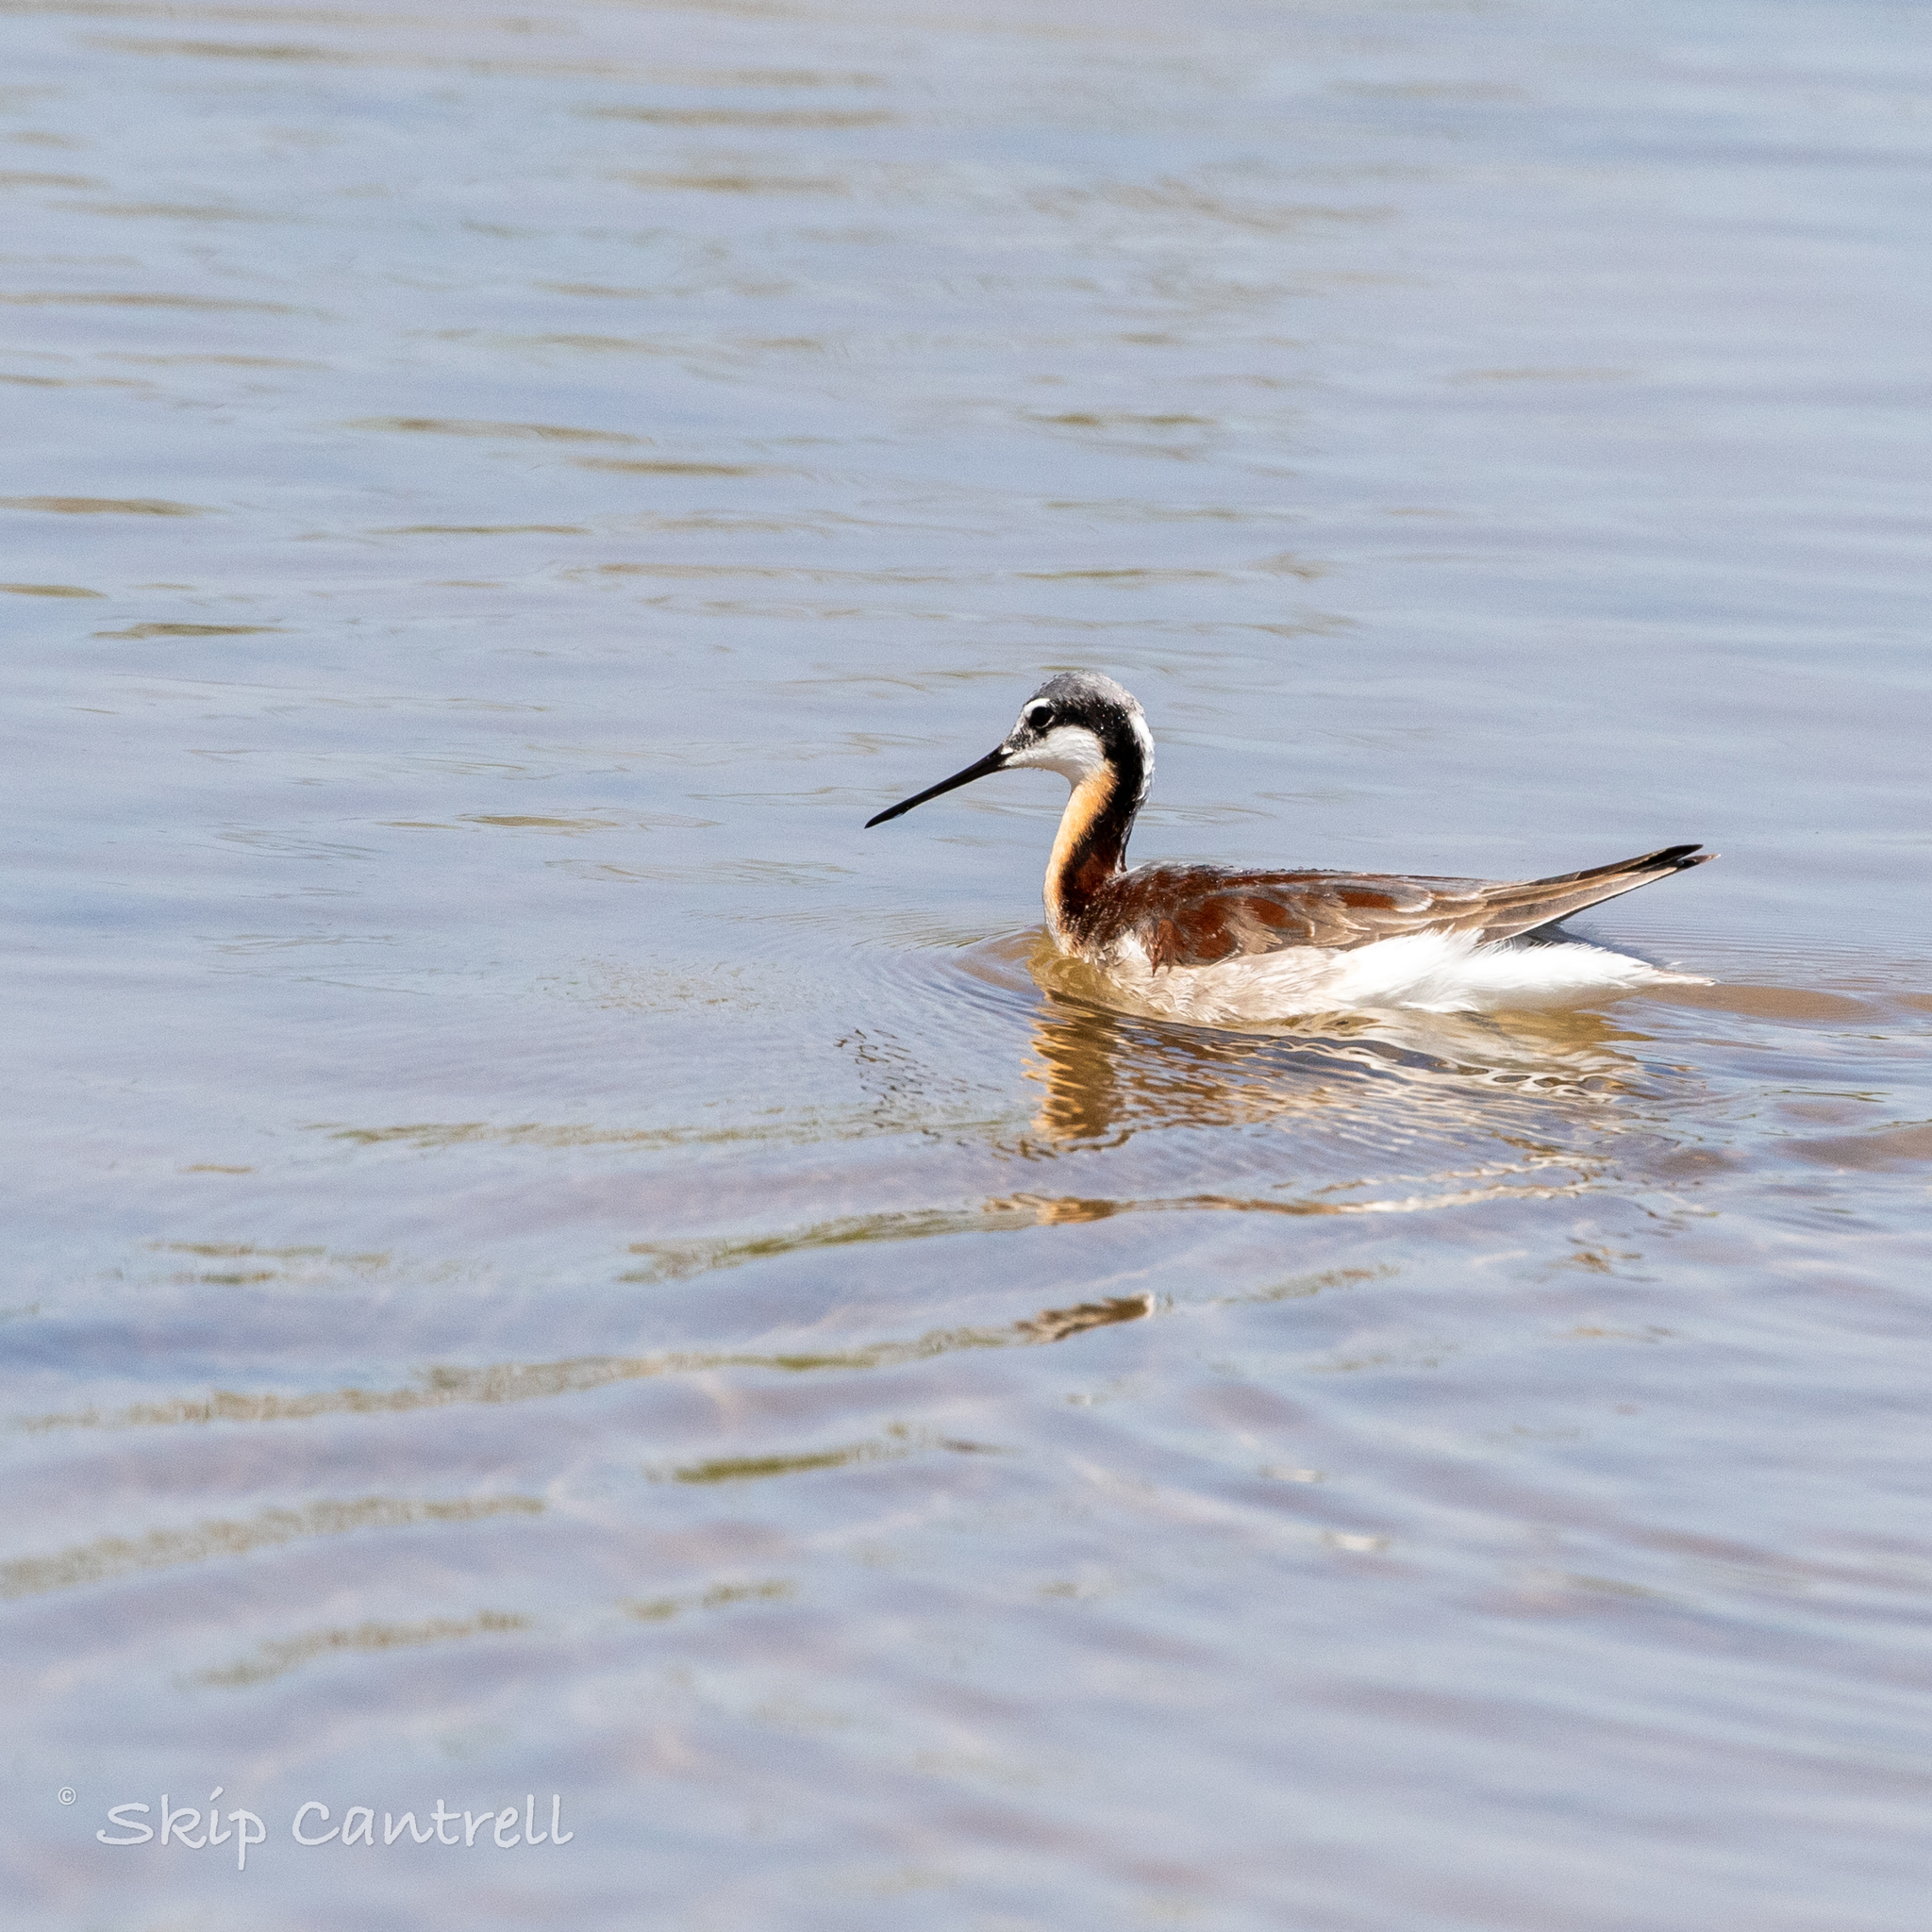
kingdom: Animalia
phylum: Chordata
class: Aves
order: Charadriiformes
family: Scolopacidae
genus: Phalaropus
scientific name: Phalaropus tricolor
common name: Wilson's phalarope
